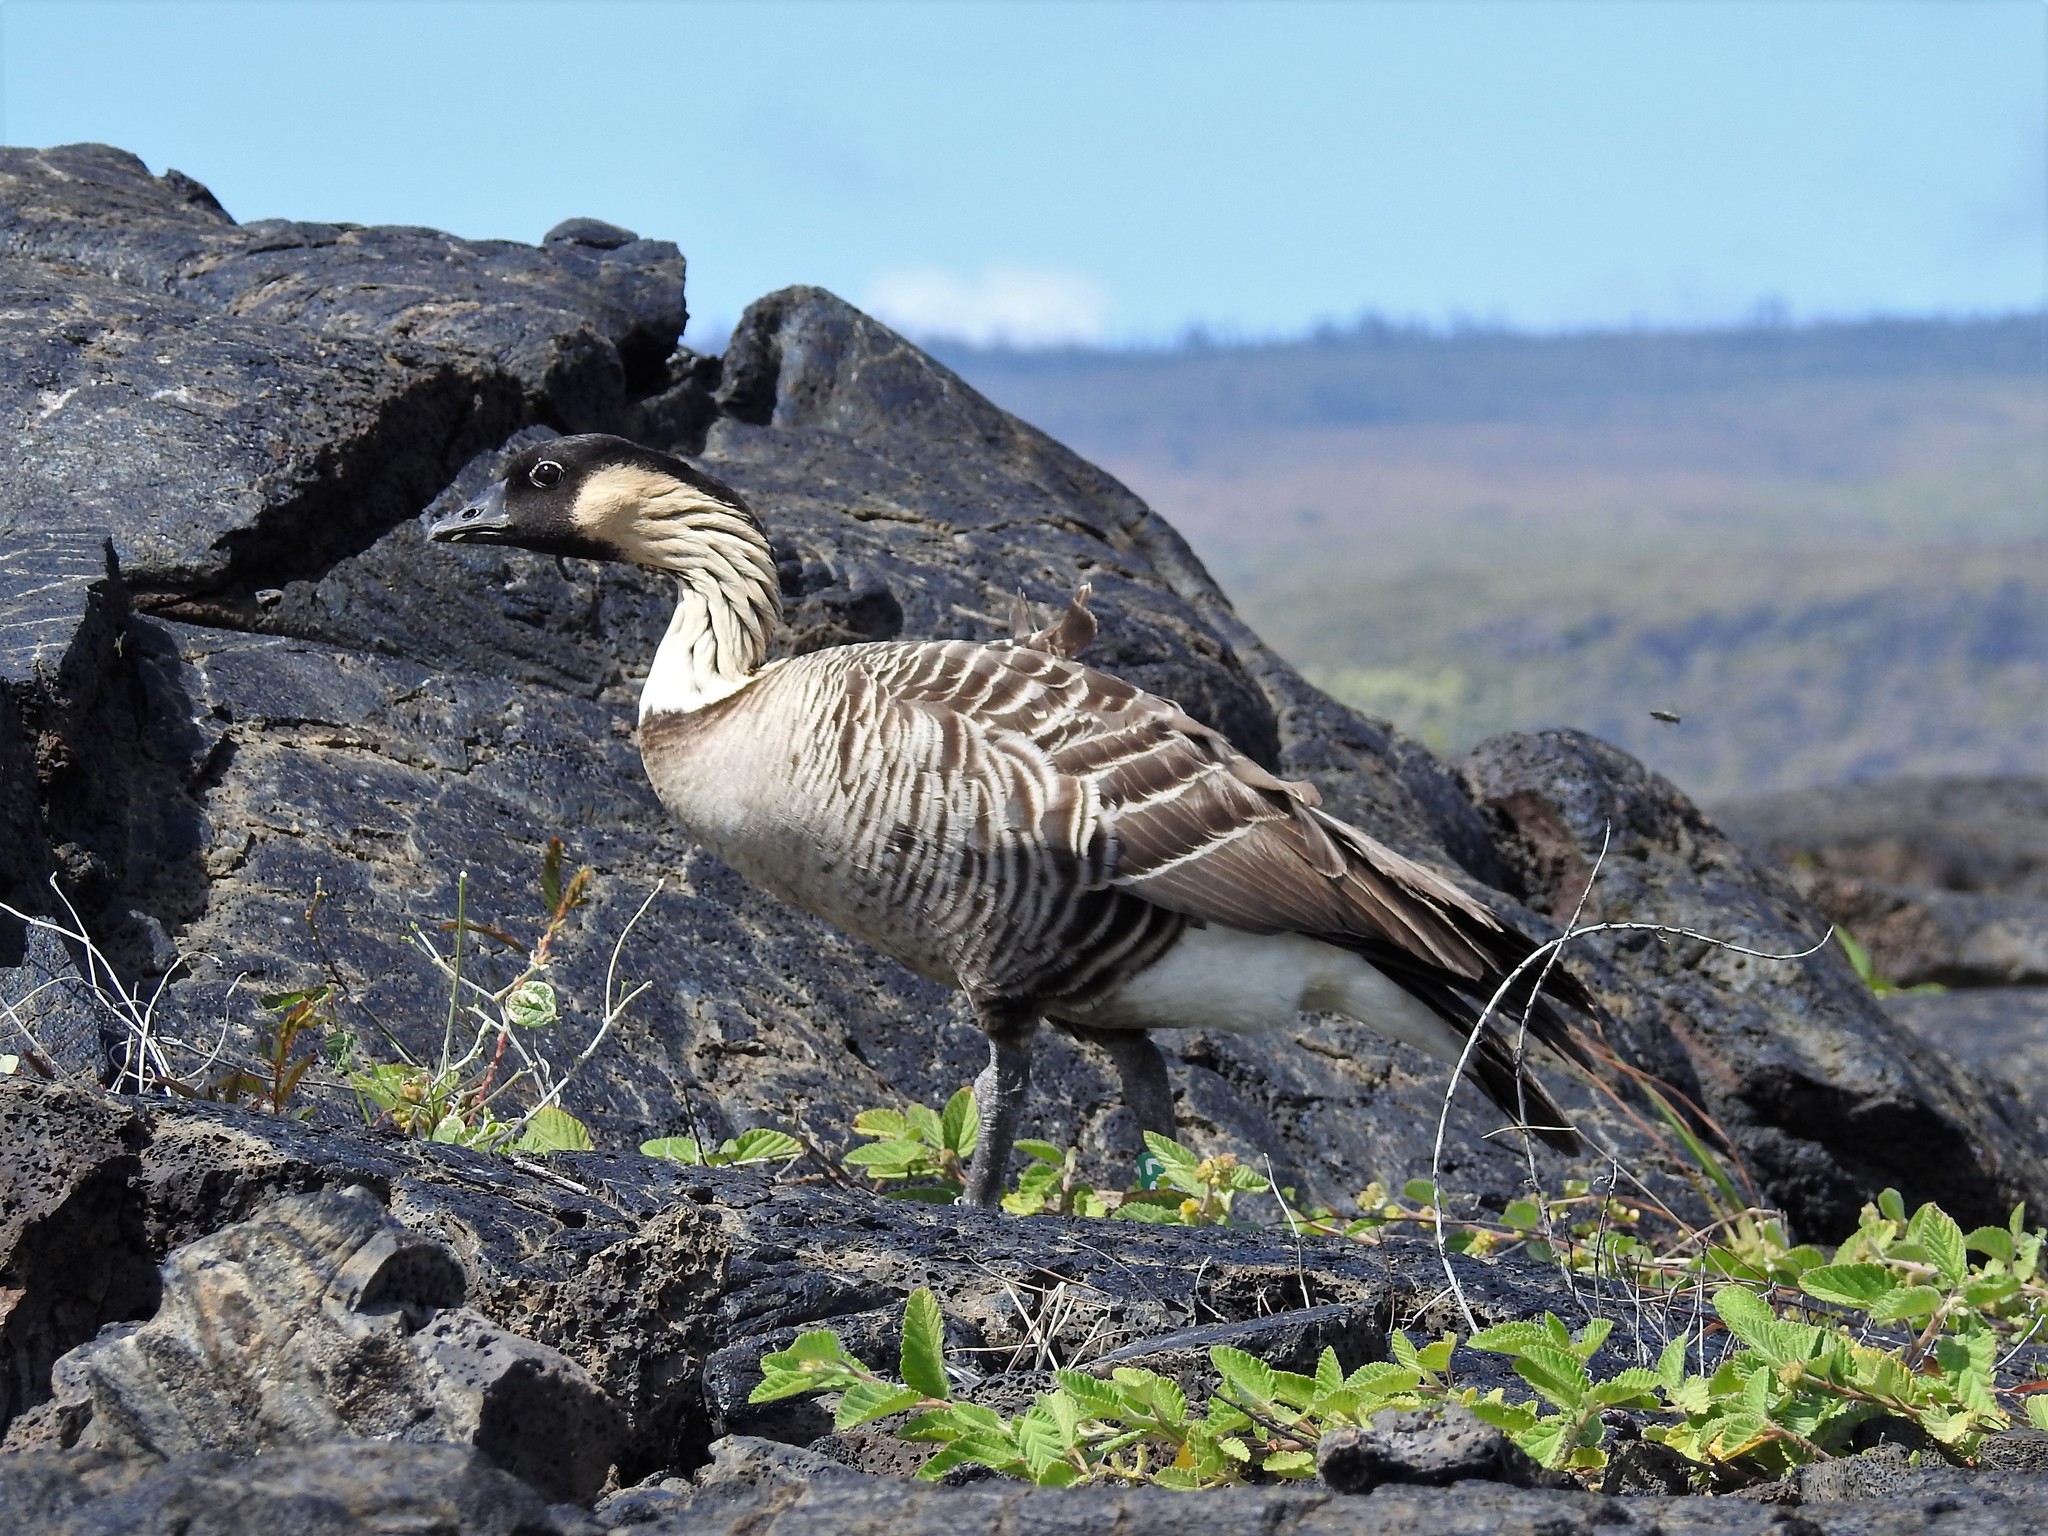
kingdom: Animalia
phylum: Chordata
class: Aves
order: Anseriformes
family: Anatidae
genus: Branta
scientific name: Branta sandvicensis
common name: Nene
